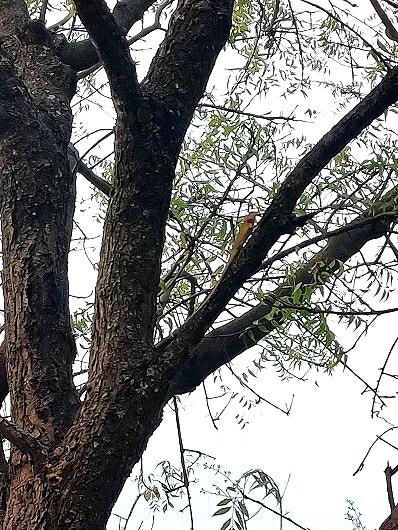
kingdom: Animalia
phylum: Chordata
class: Squamata
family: Agamidae
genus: Calotes
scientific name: Calotes versicolor
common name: Oriental garden lizard
